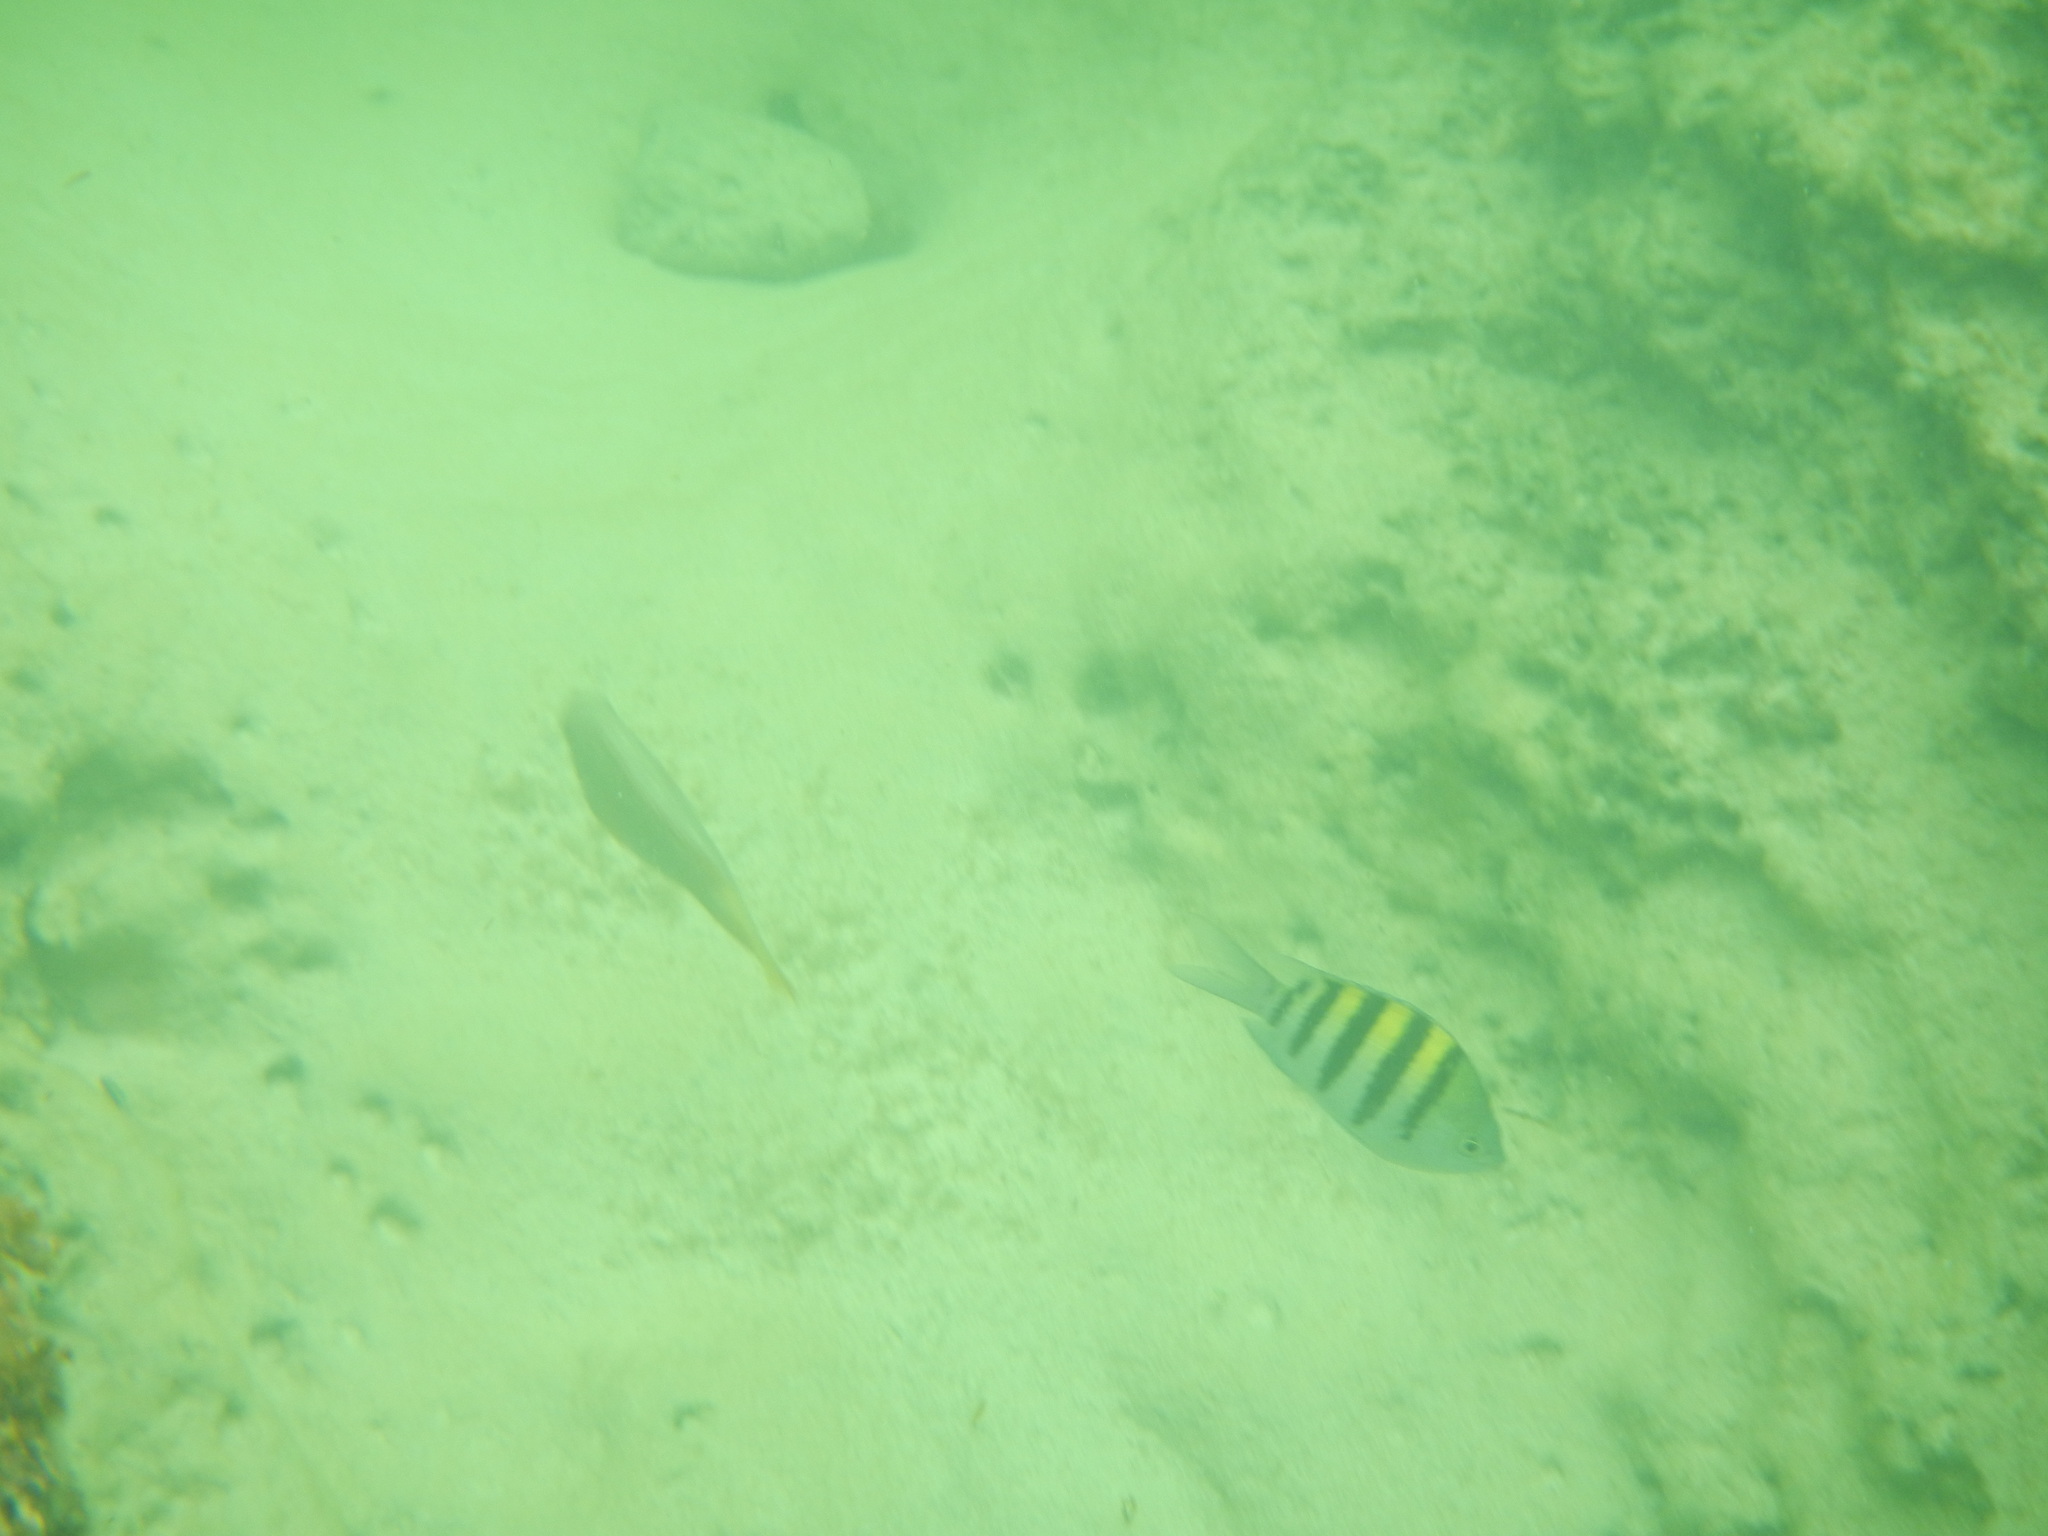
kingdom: Animalia
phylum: Chordata
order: Perciformes
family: Pomacentridae
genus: Abudefduf
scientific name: Abudefduf saxatilis
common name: Sergeant major
